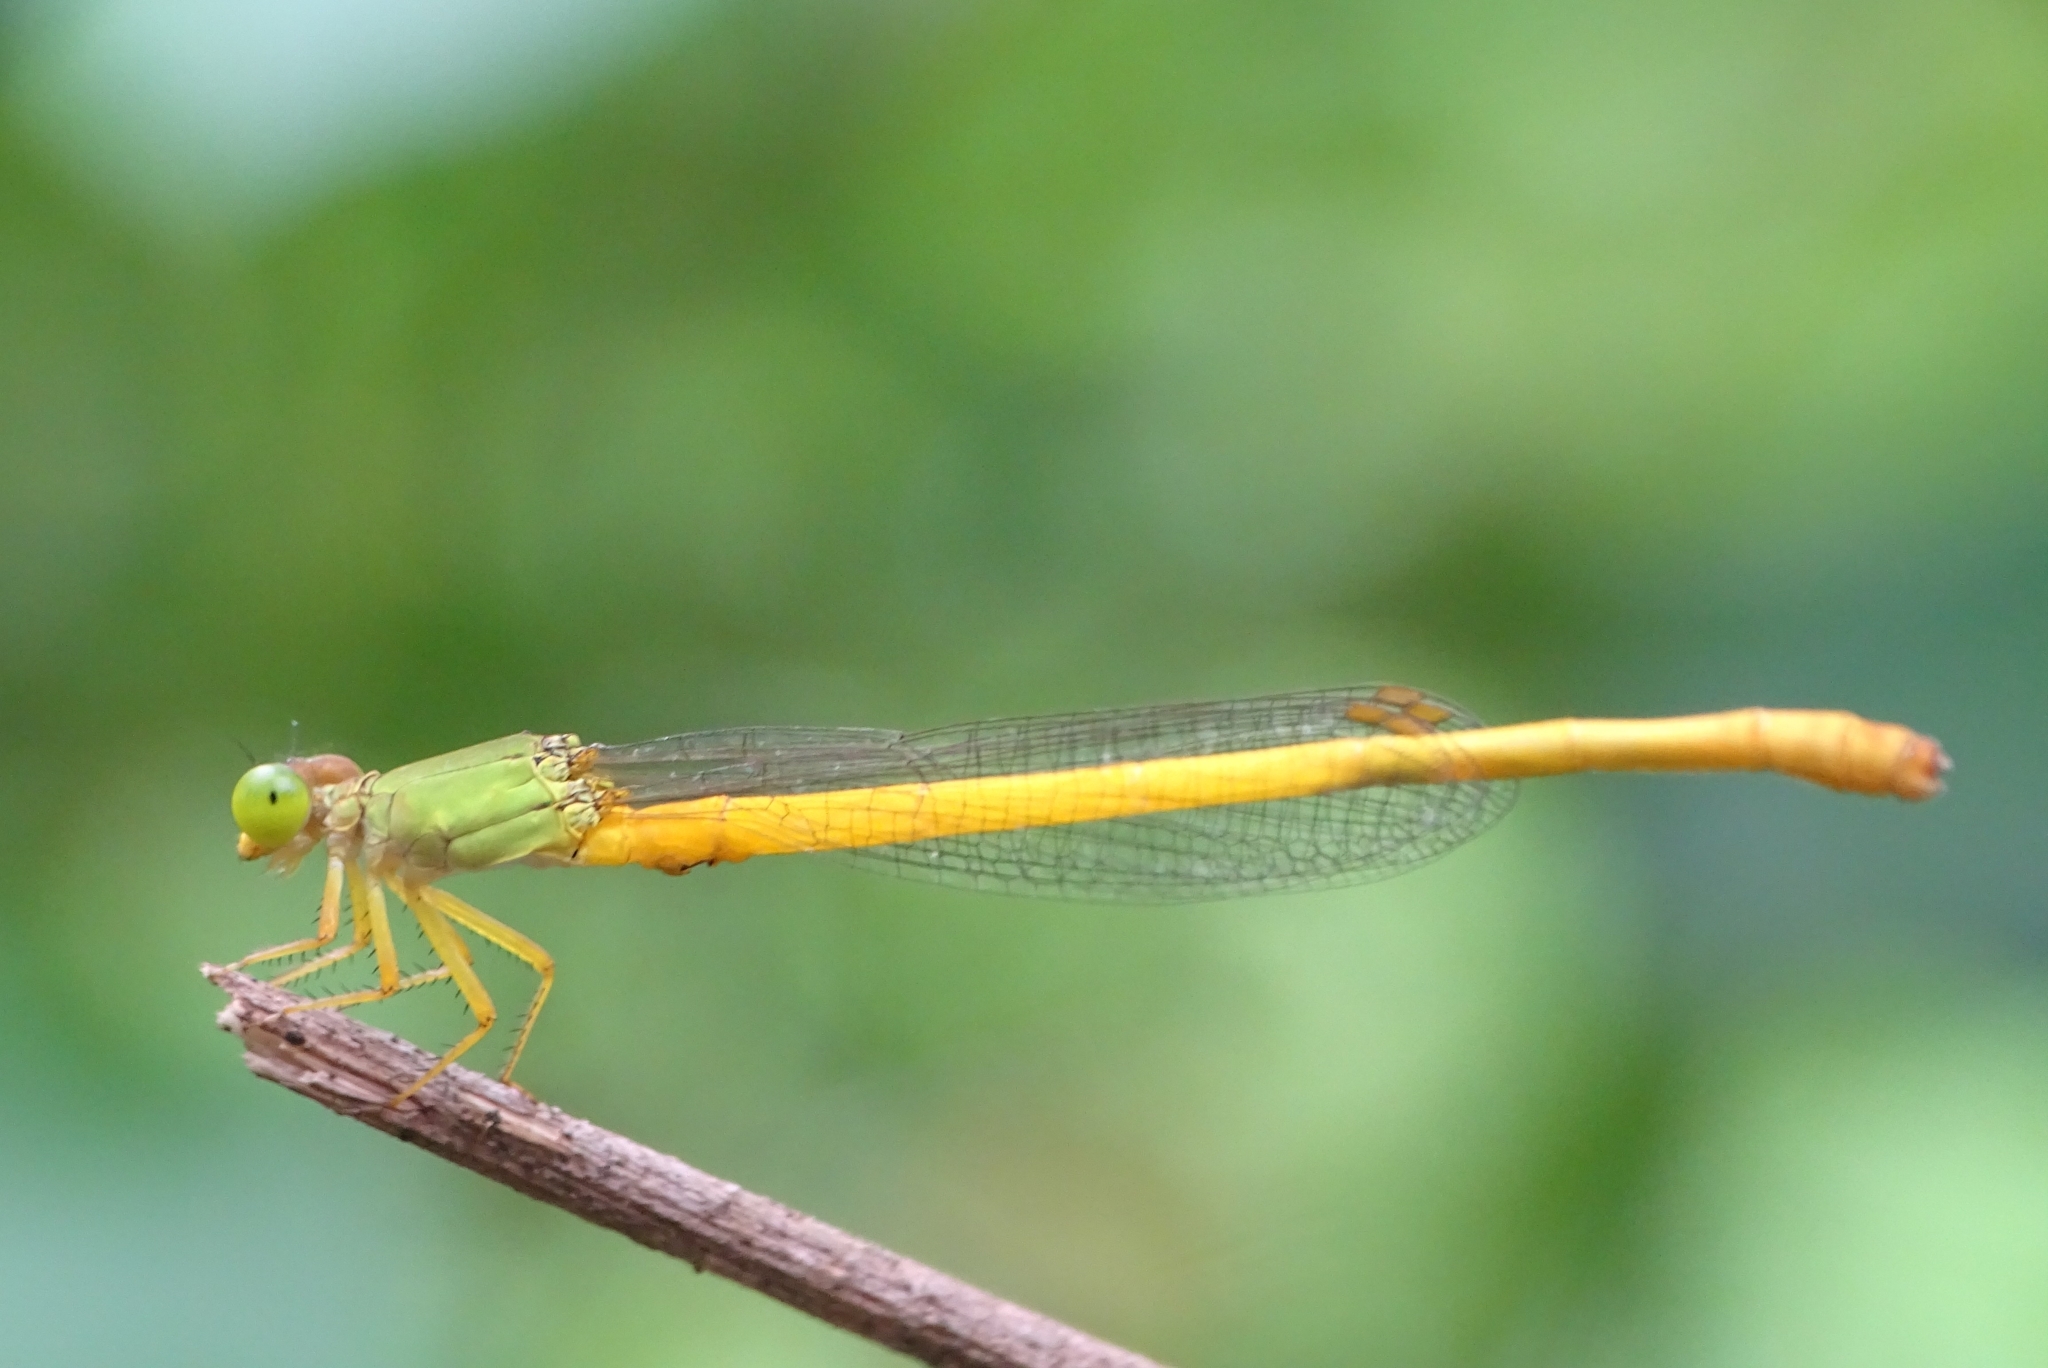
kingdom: Animalia
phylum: Arthropoda
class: Insecta
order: Odonata
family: Coenagrionidae
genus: Ceriagrion
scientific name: Ceriagrion coromandelianum
